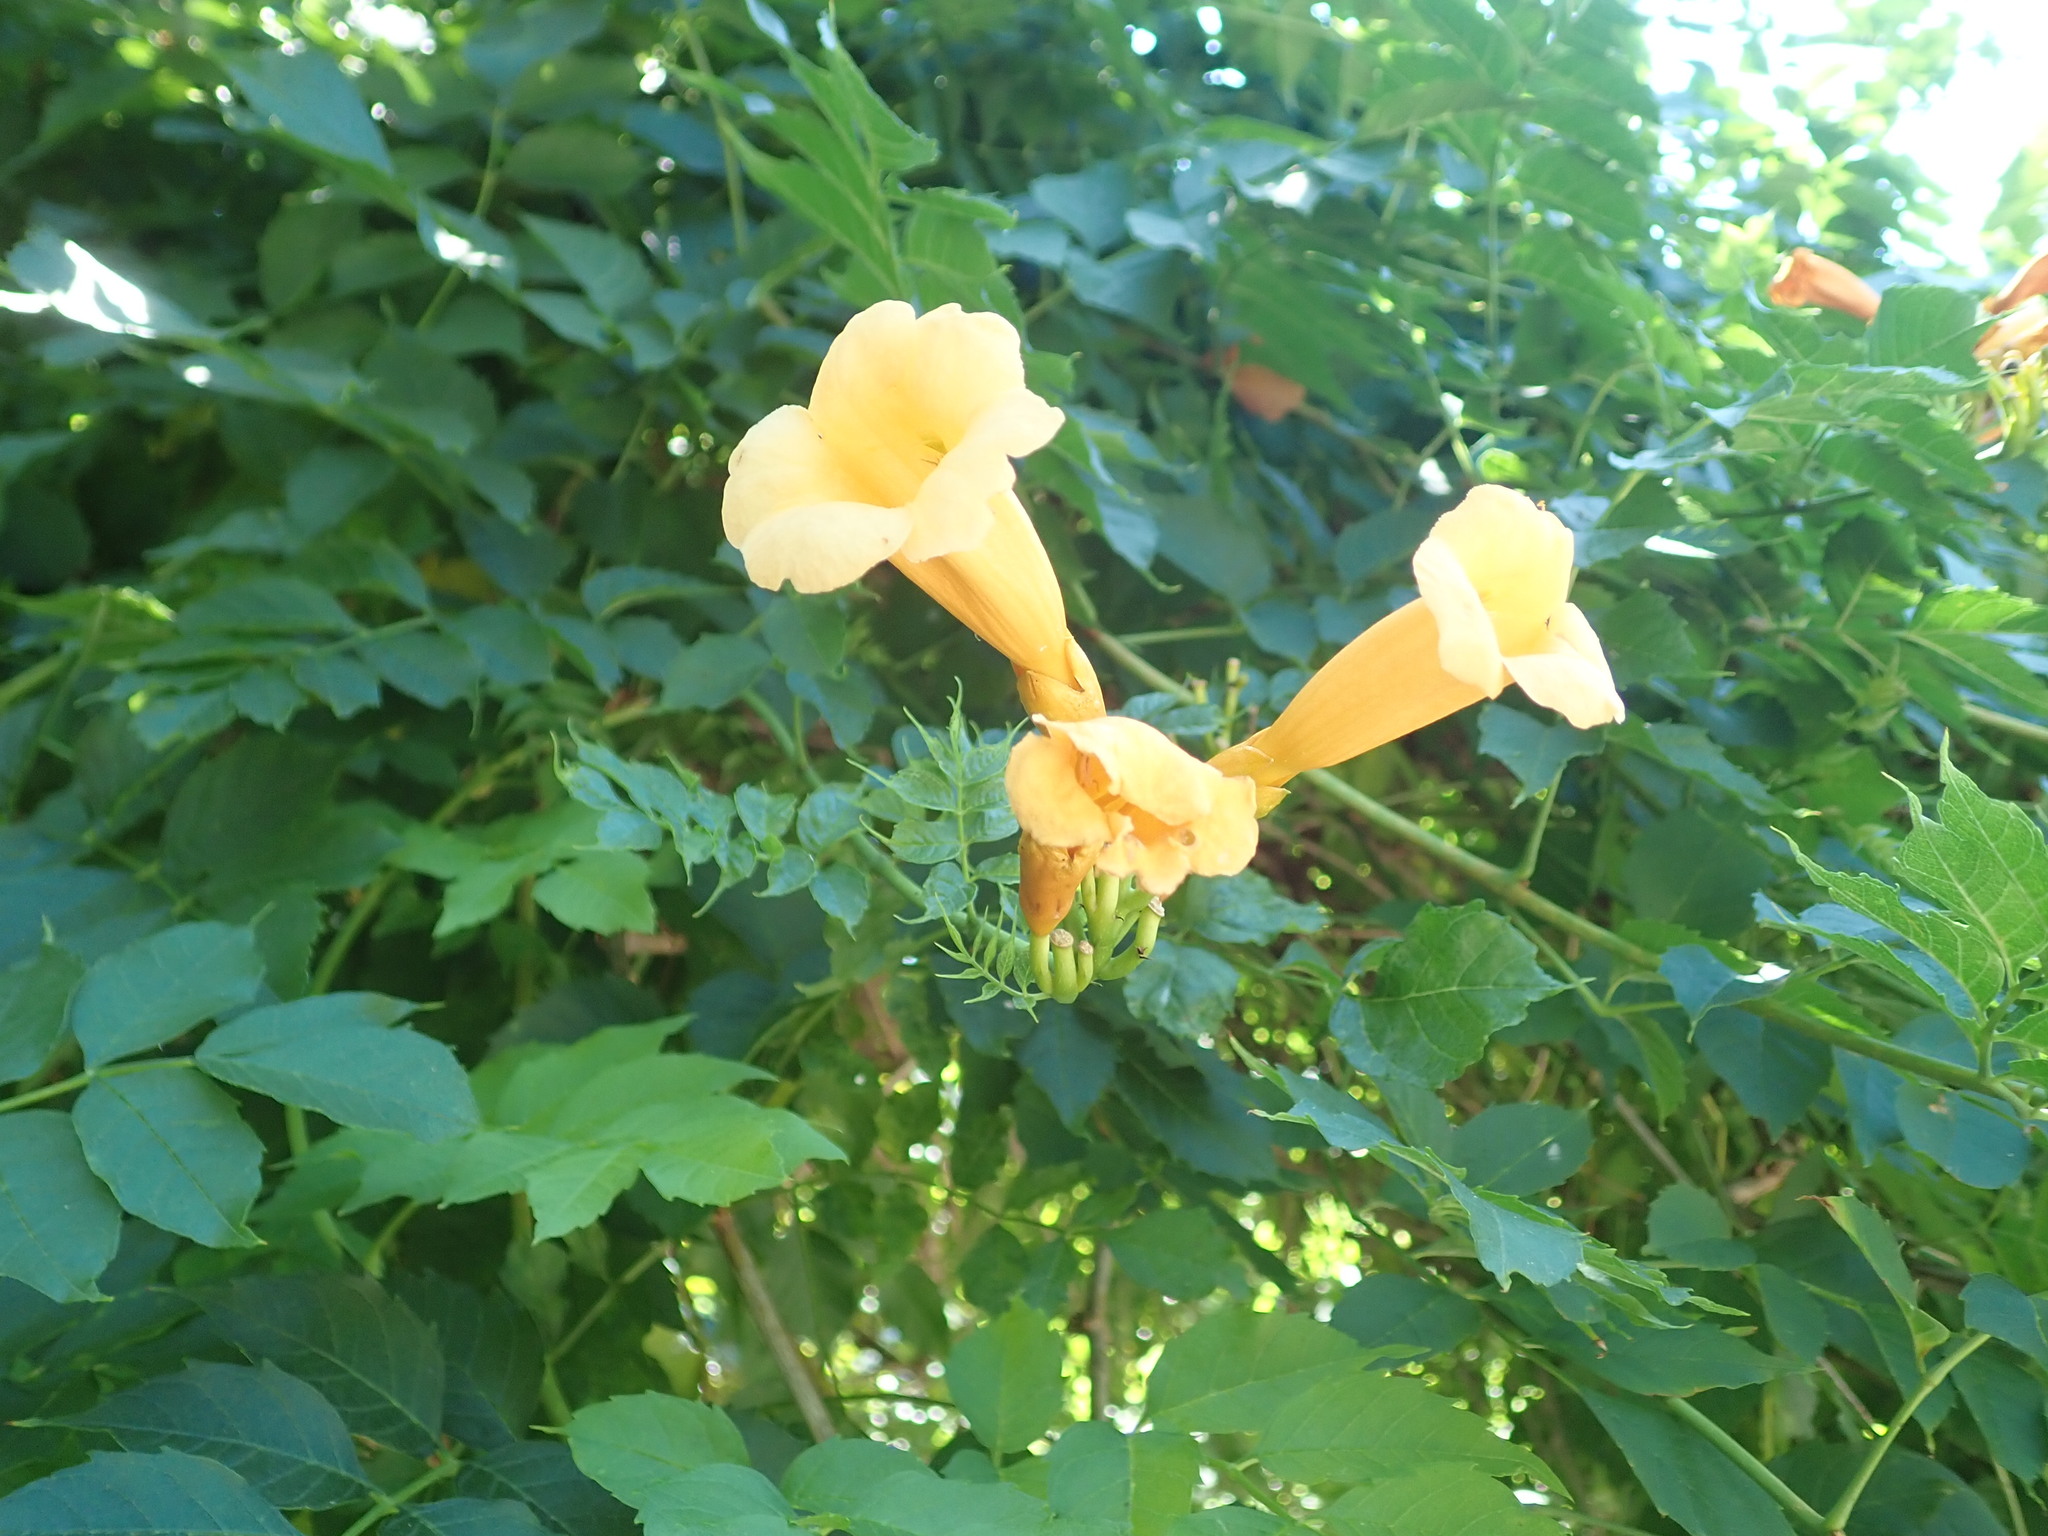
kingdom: Plantae
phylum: Tracheophyta
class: Magnoliopsida
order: Lamiales
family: Bignoniaceae
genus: Campsis
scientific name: Campsis radicans
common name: Trumpet-creeper
